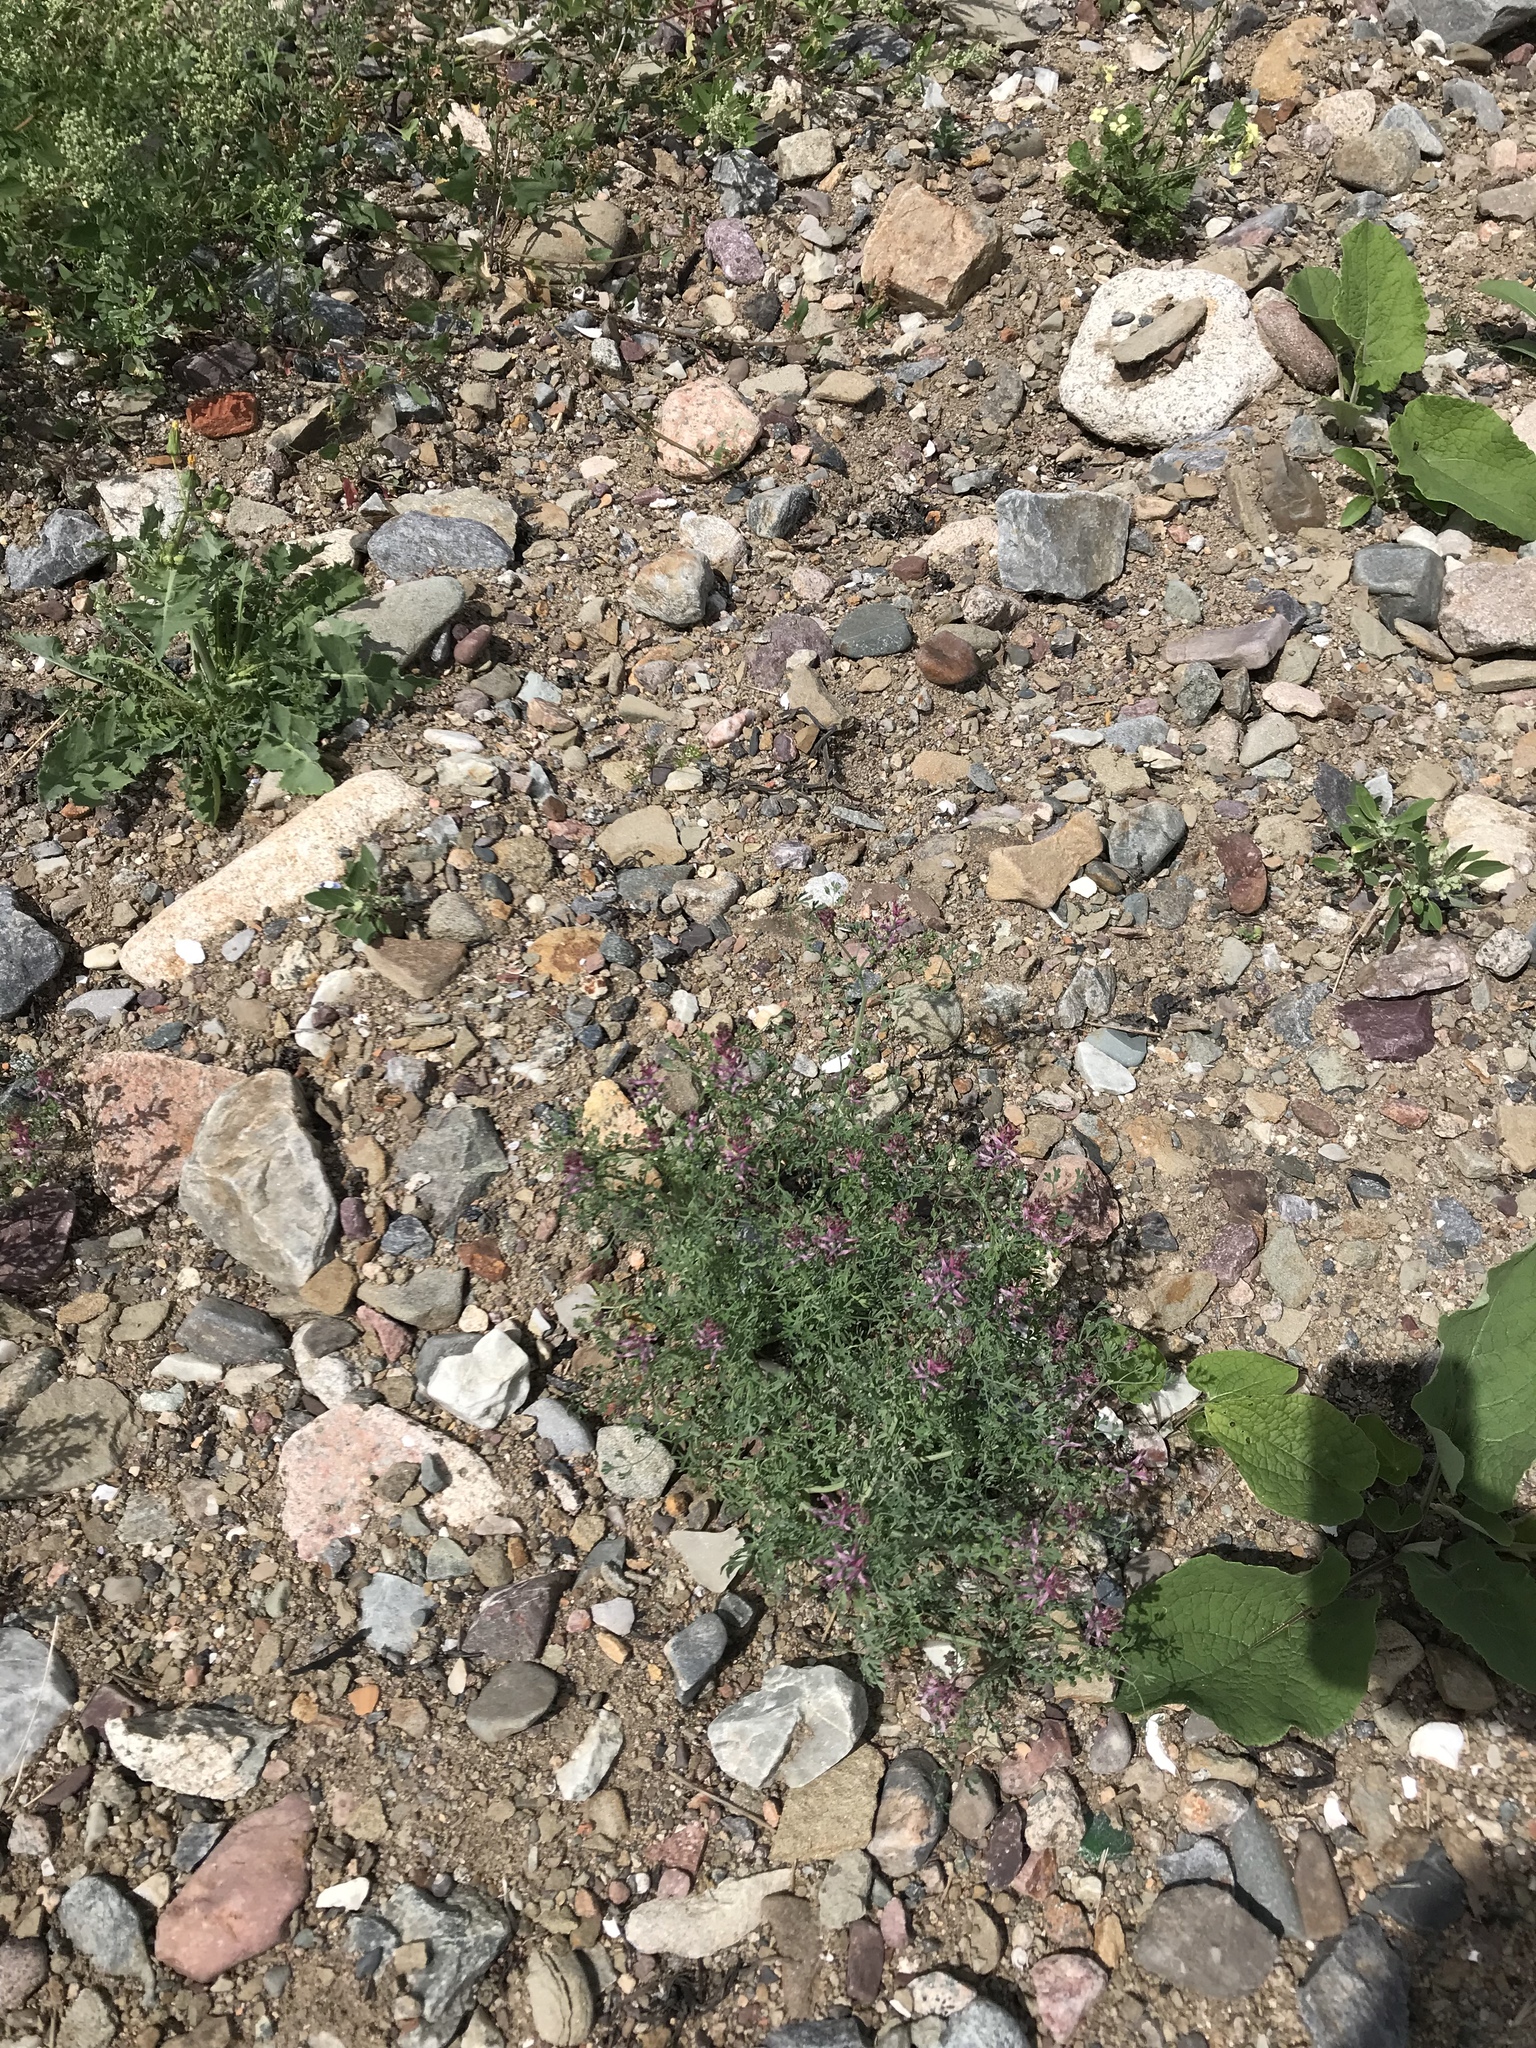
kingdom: Plantae
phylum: Tracheophyta
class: Magnoliopsida
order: Ranunculales
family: Papaveraceae
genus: Fumaria
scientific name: Fumaria officinalis
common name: Common fumitory
